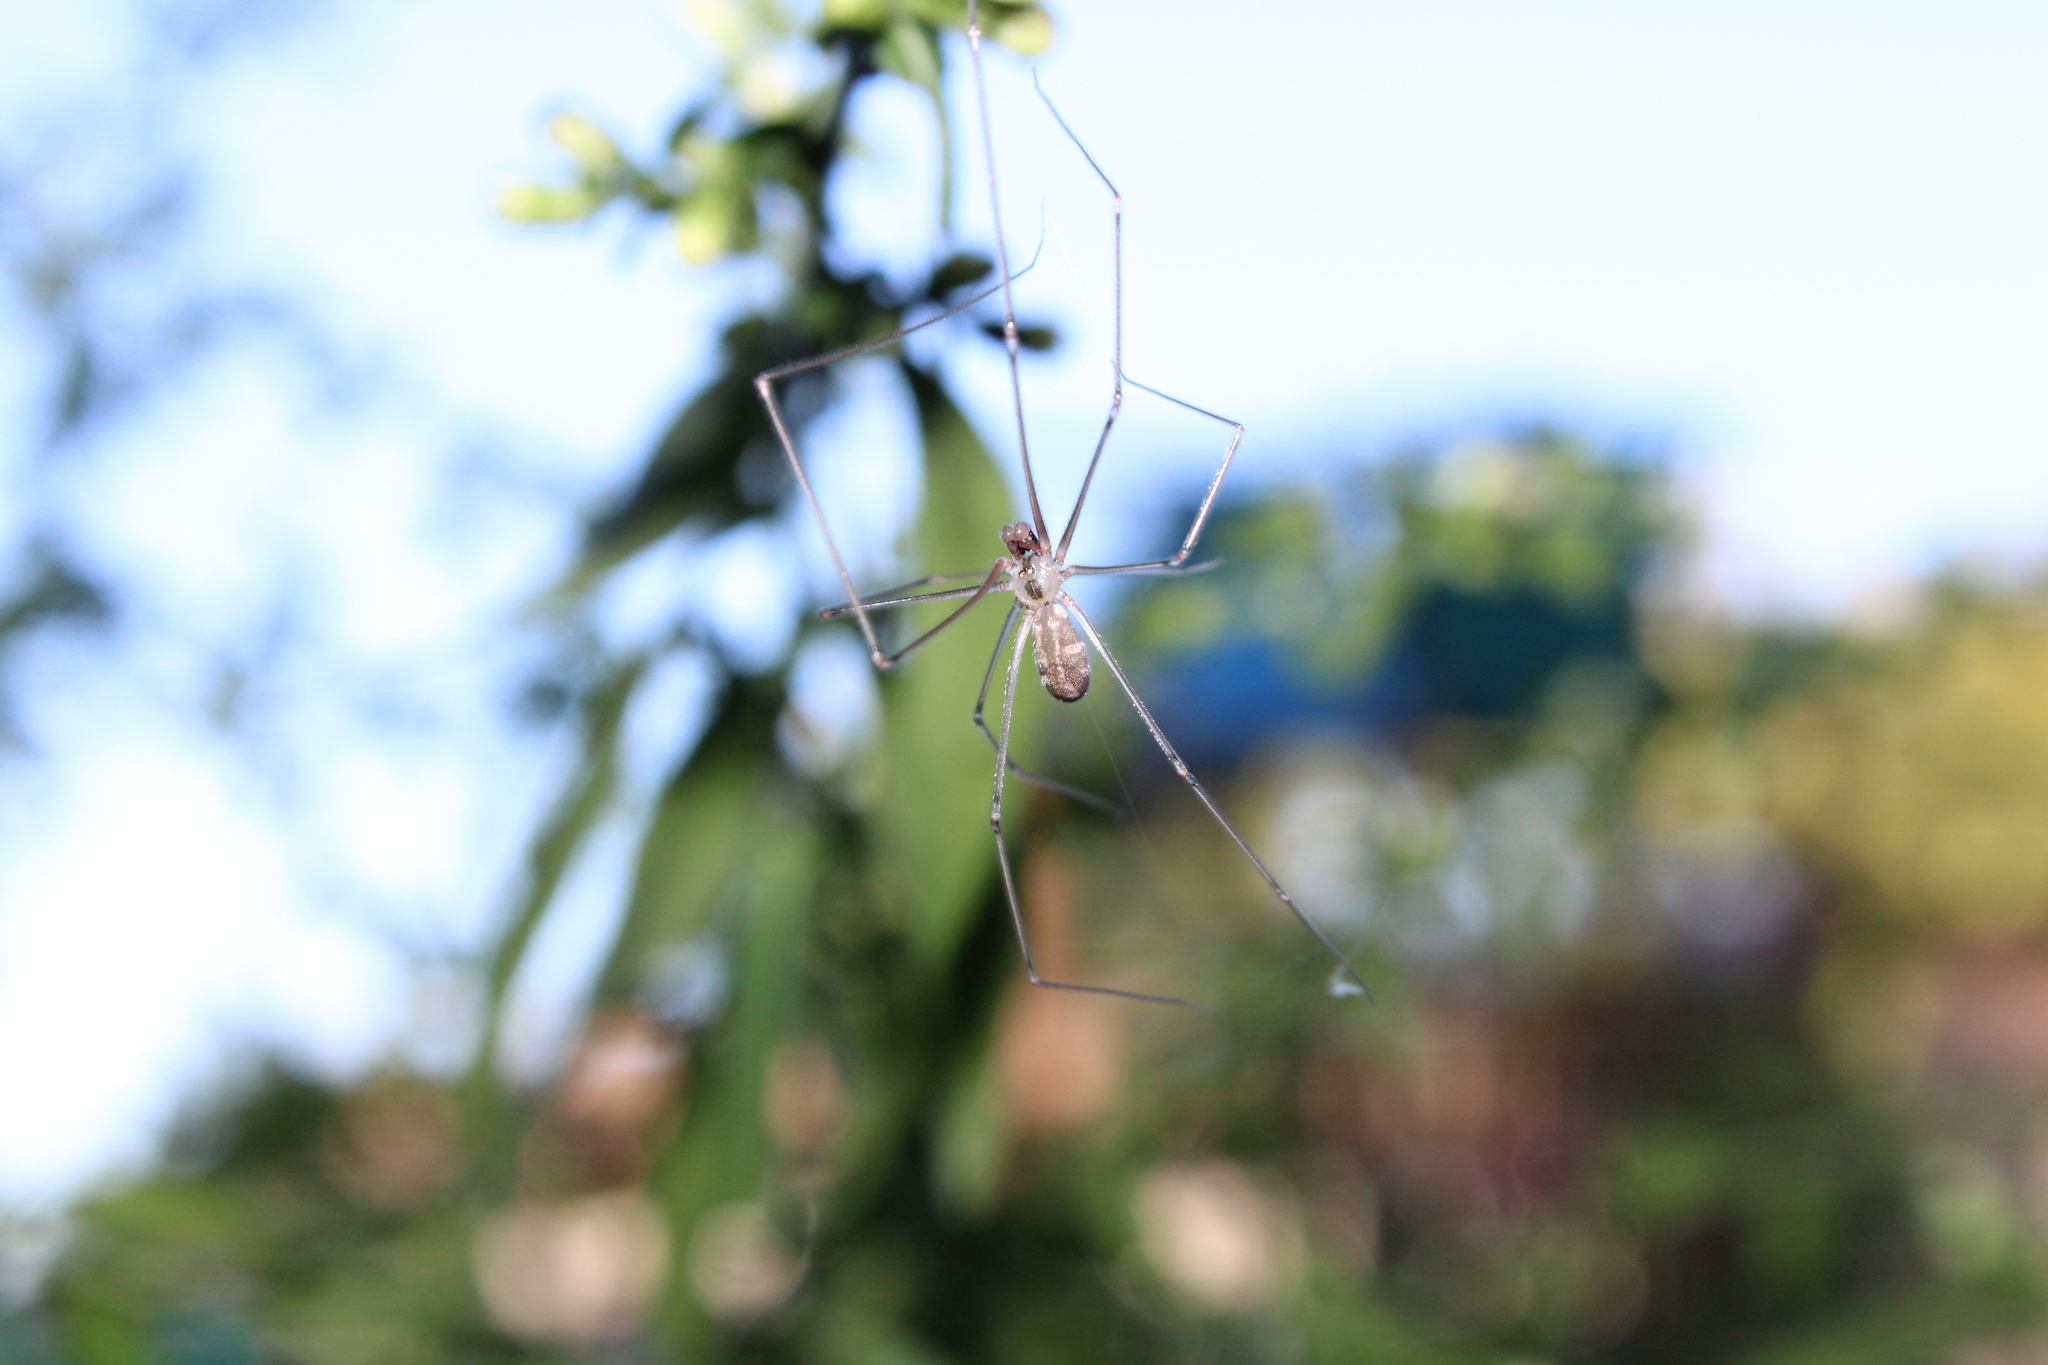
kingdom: Animalia
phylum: Arthropoda
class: Arachnida
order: Araneae
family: Pholcidae
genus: Pholcus
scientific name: Pholcus manueli
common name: Cellar spider
